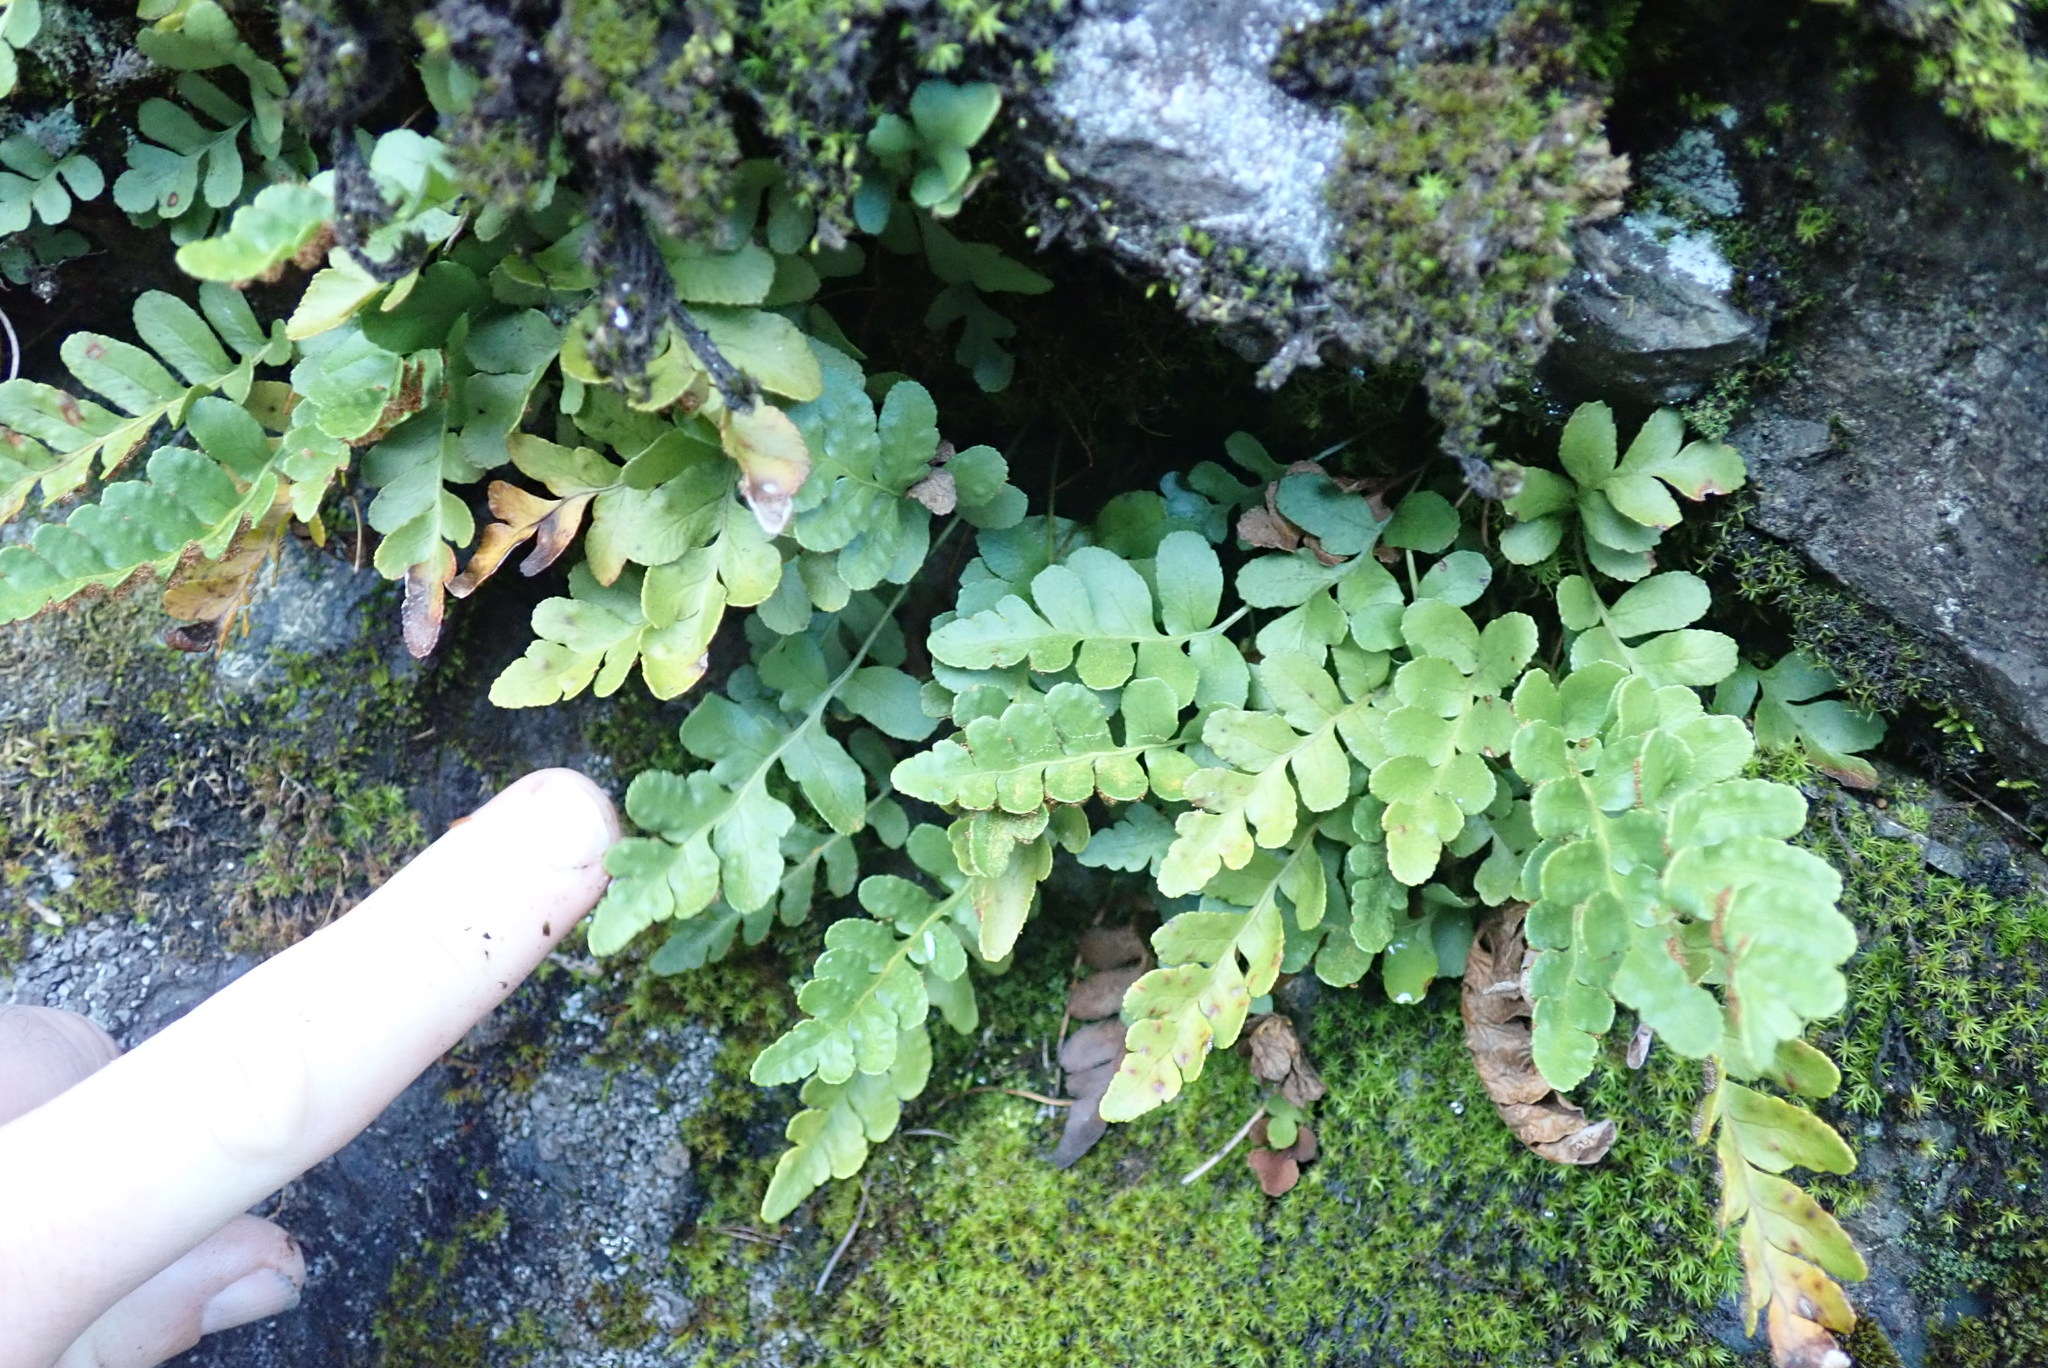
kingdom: Plantae
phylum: Tracheophyta
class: Polypodiopsida
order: Polypodiales
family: Polypodiaceae
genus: Polypodium
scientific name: Polypodium amorphum
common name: Pacific polypody
